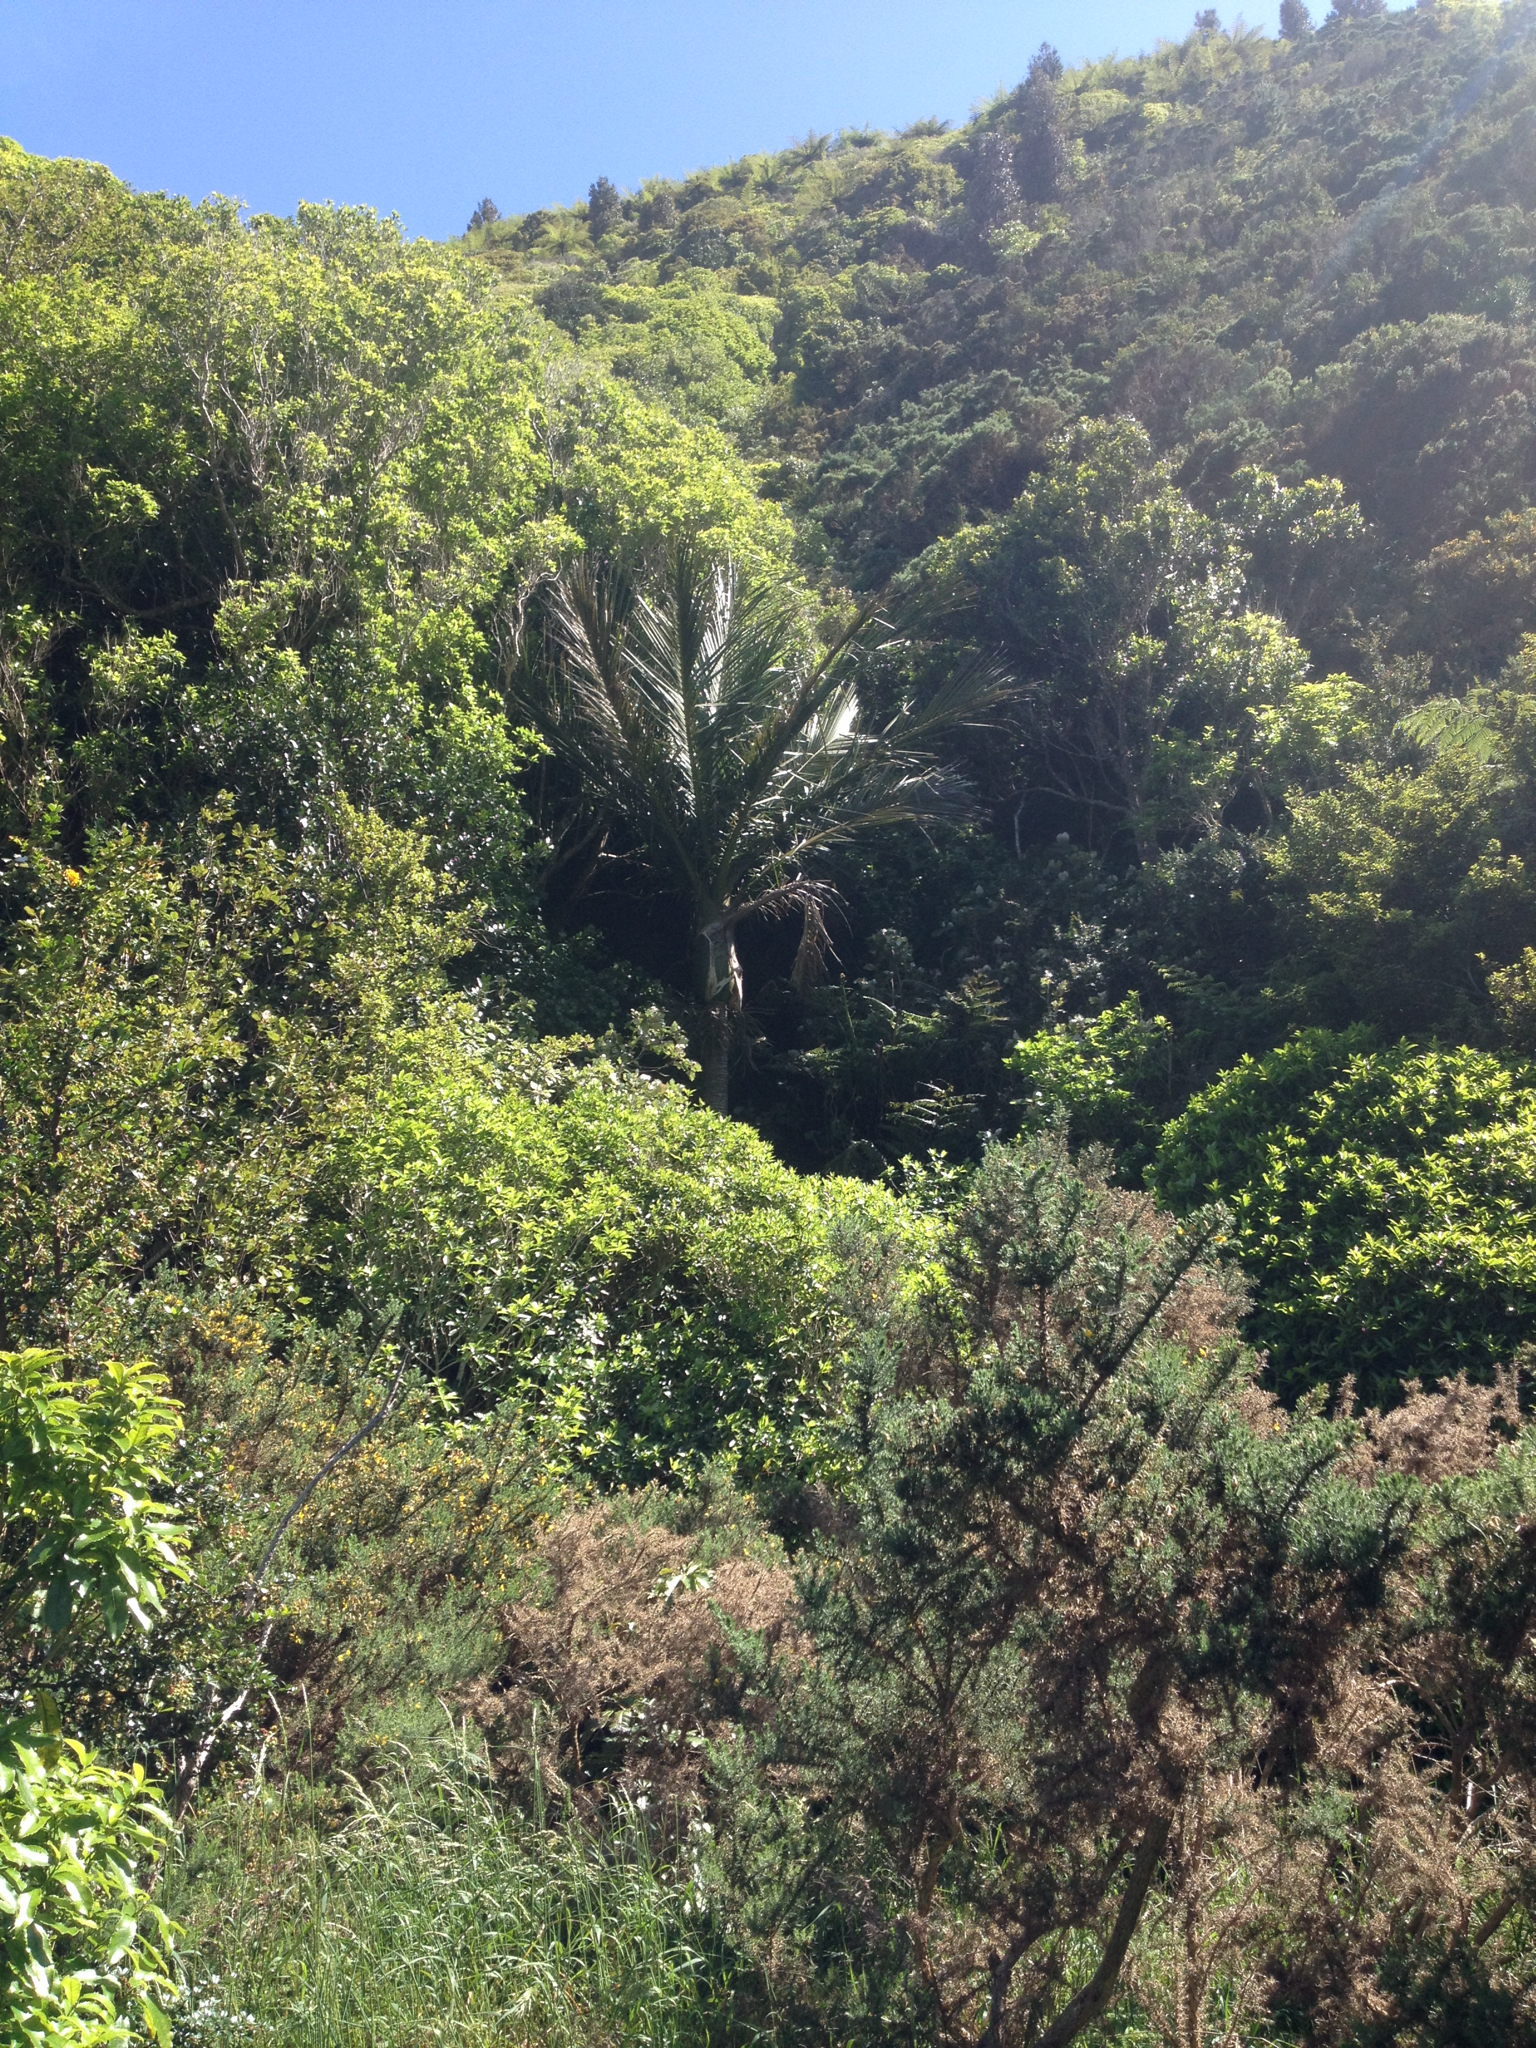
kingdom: Plantae
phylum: Tracheophyta
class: Liliopsida
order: Arecales
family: Arecaceae
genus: Rhopalostylis
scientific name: Rhopalostylis sapida
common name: Feather-duster palm
